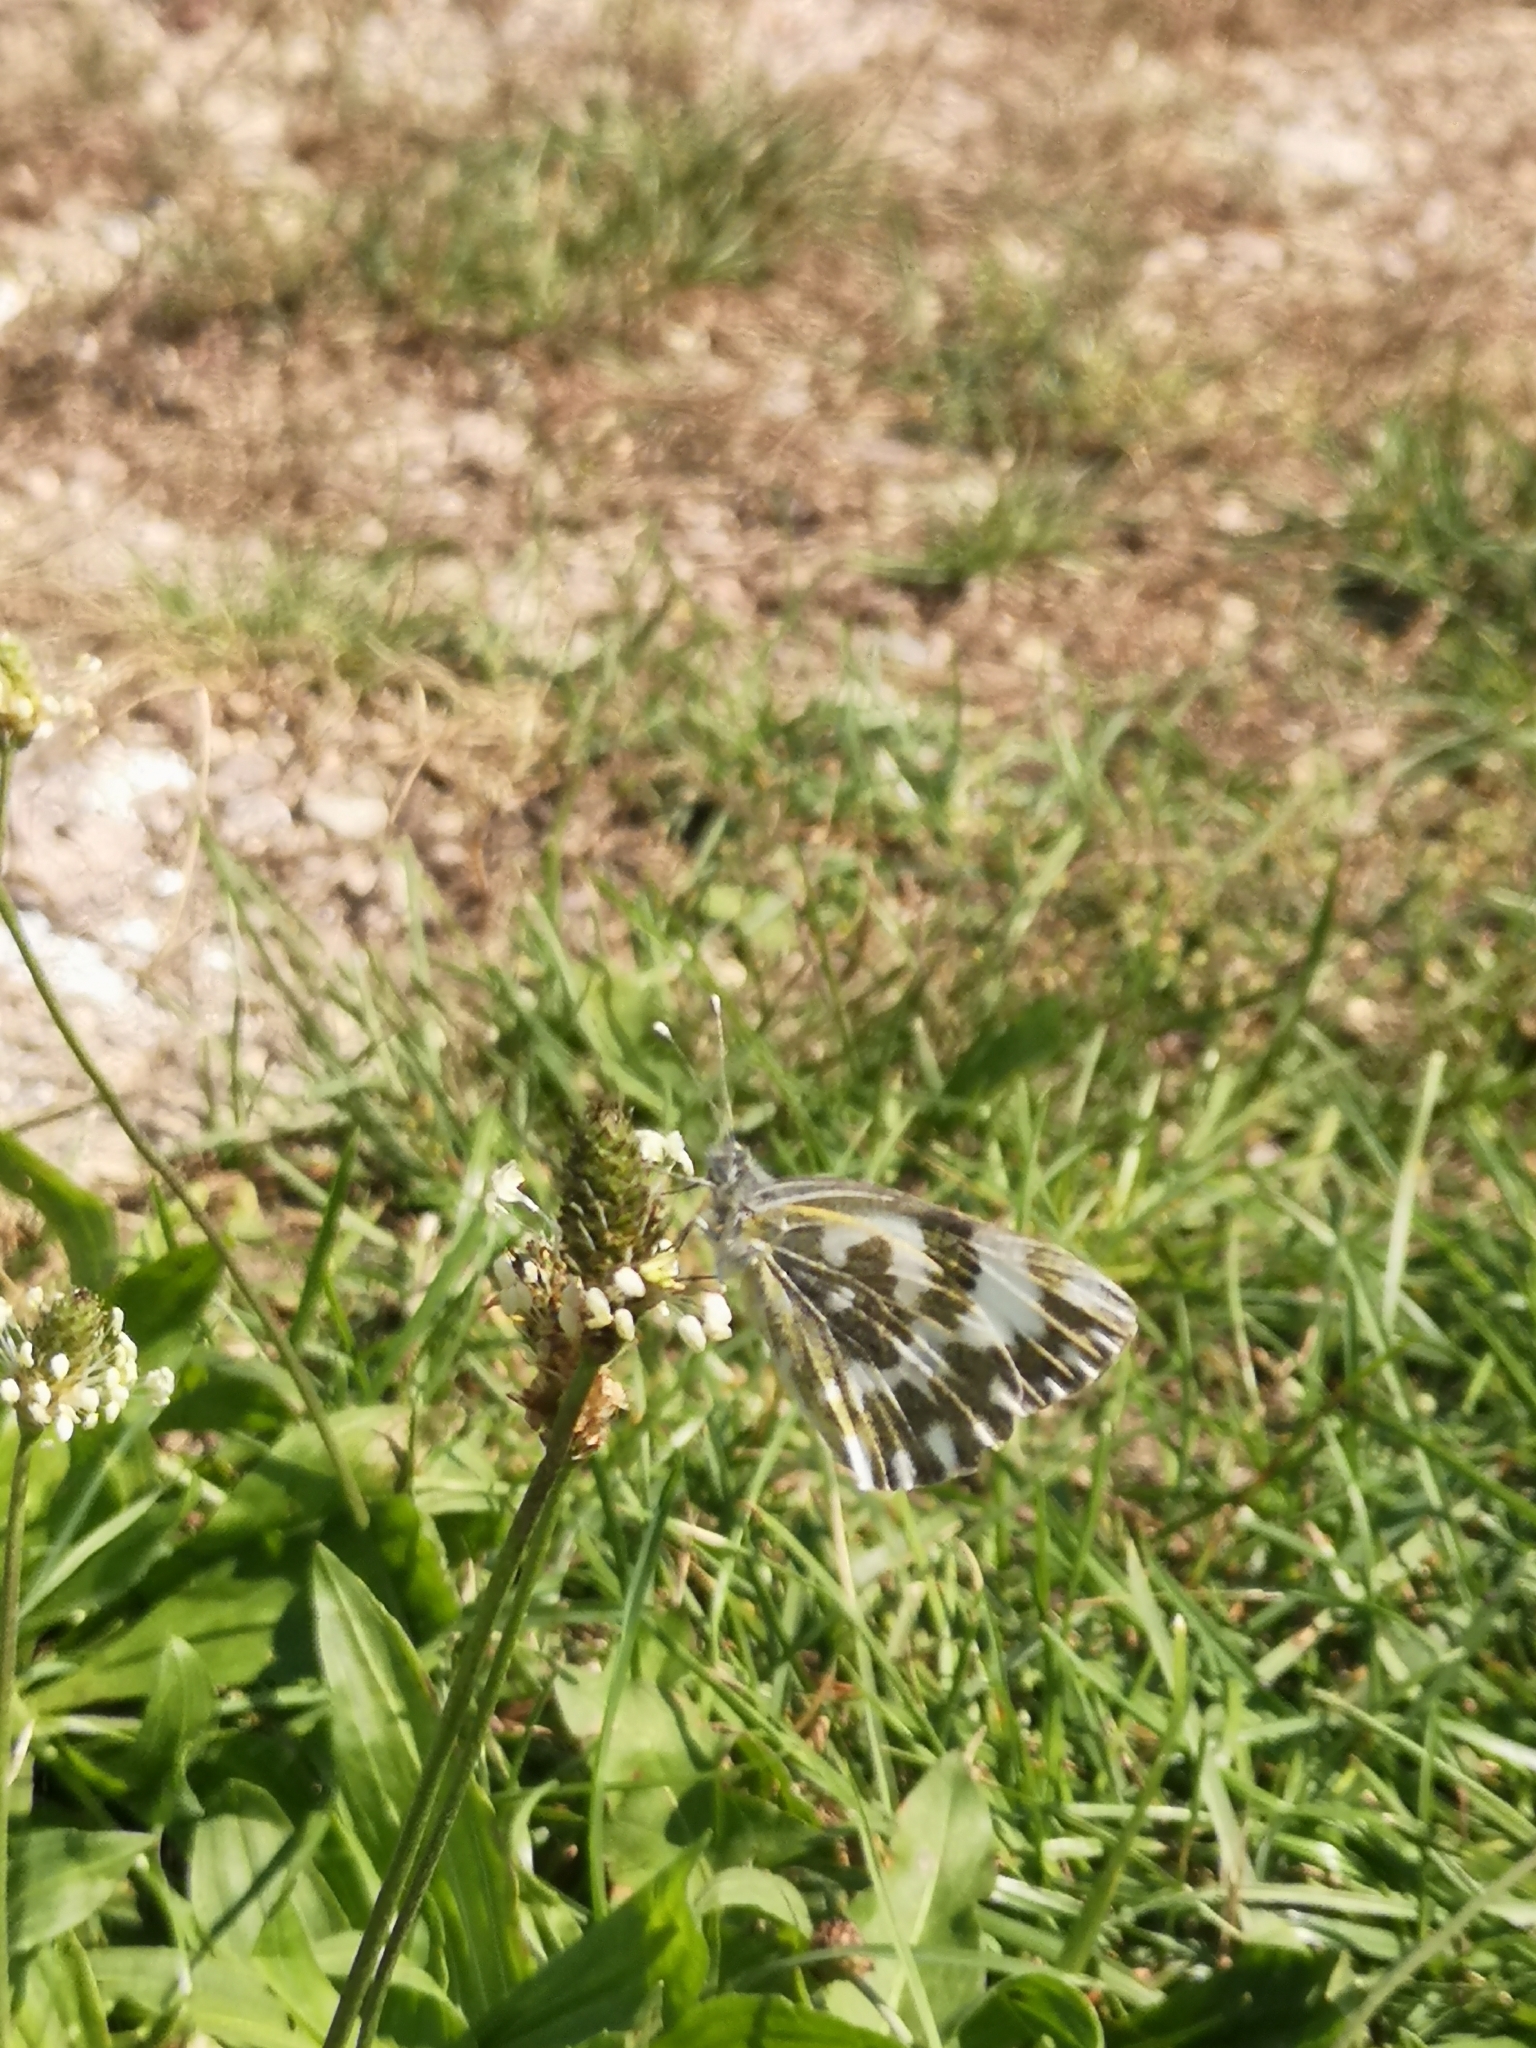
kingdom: Animalia
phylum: Arthropoda
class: Insecta
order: Lepidoptera
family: Pieridae
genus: Pontia
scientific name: Pontia edusa
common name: Eastern bath white
